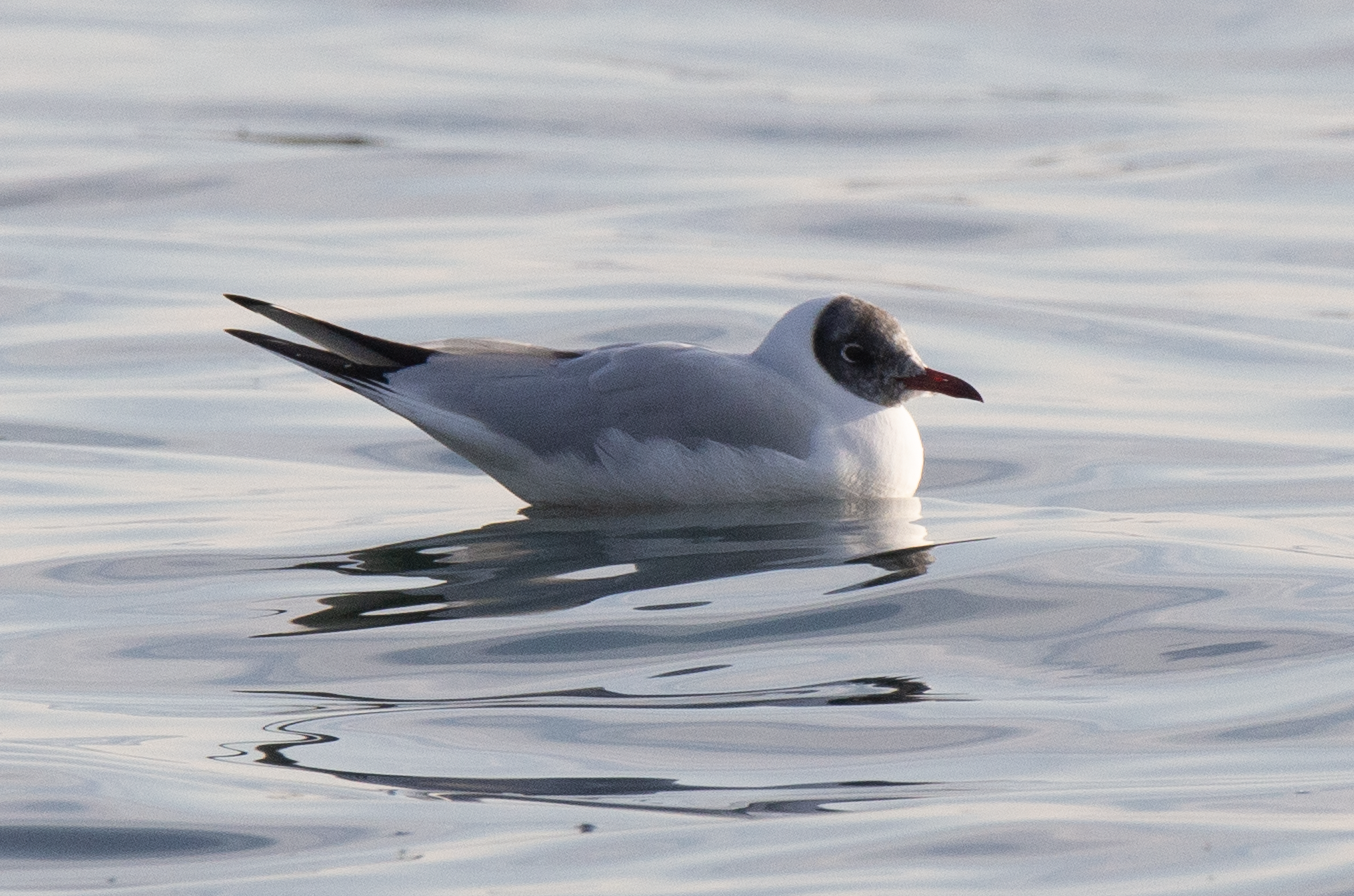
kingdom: Animalia
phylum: Chordata
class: Aves
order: Charadriiformes
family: Laridae
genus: Chroicocephalus
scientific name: Chroicocephalus ridibundus
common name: Black-headed gull
